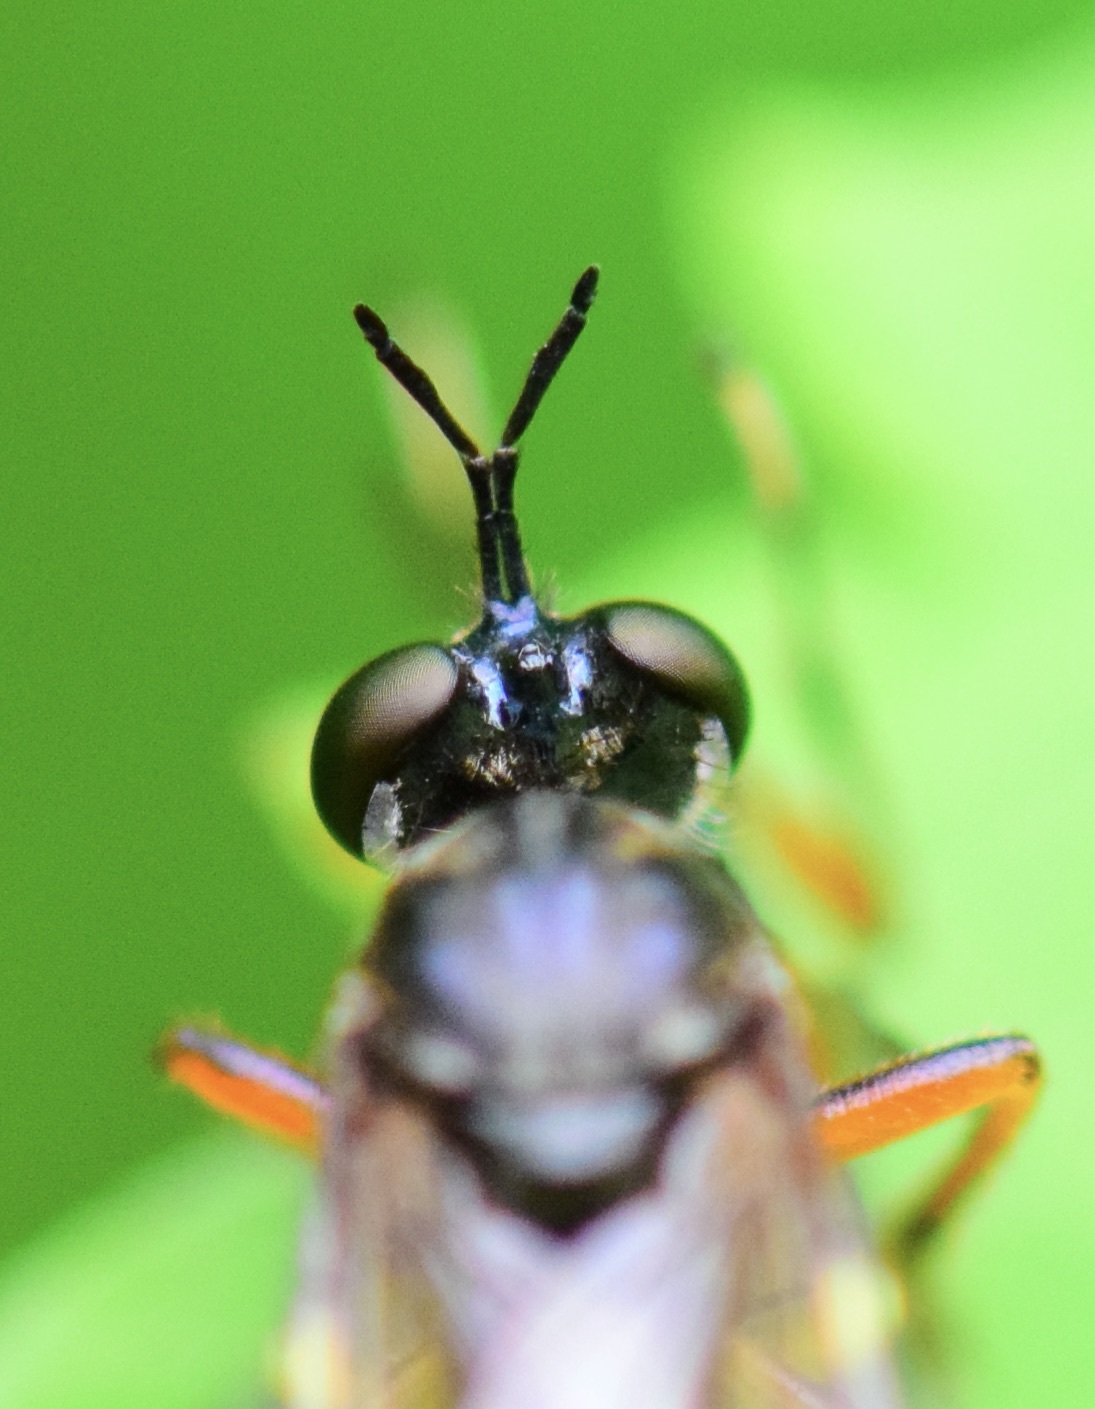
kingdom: Animalia
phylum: Arthropoda
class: Insecta
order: Diptera
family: Asilidae
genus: Dioctria
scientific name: Dioctria hyalipennis
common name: Stripe-legged robberfly
